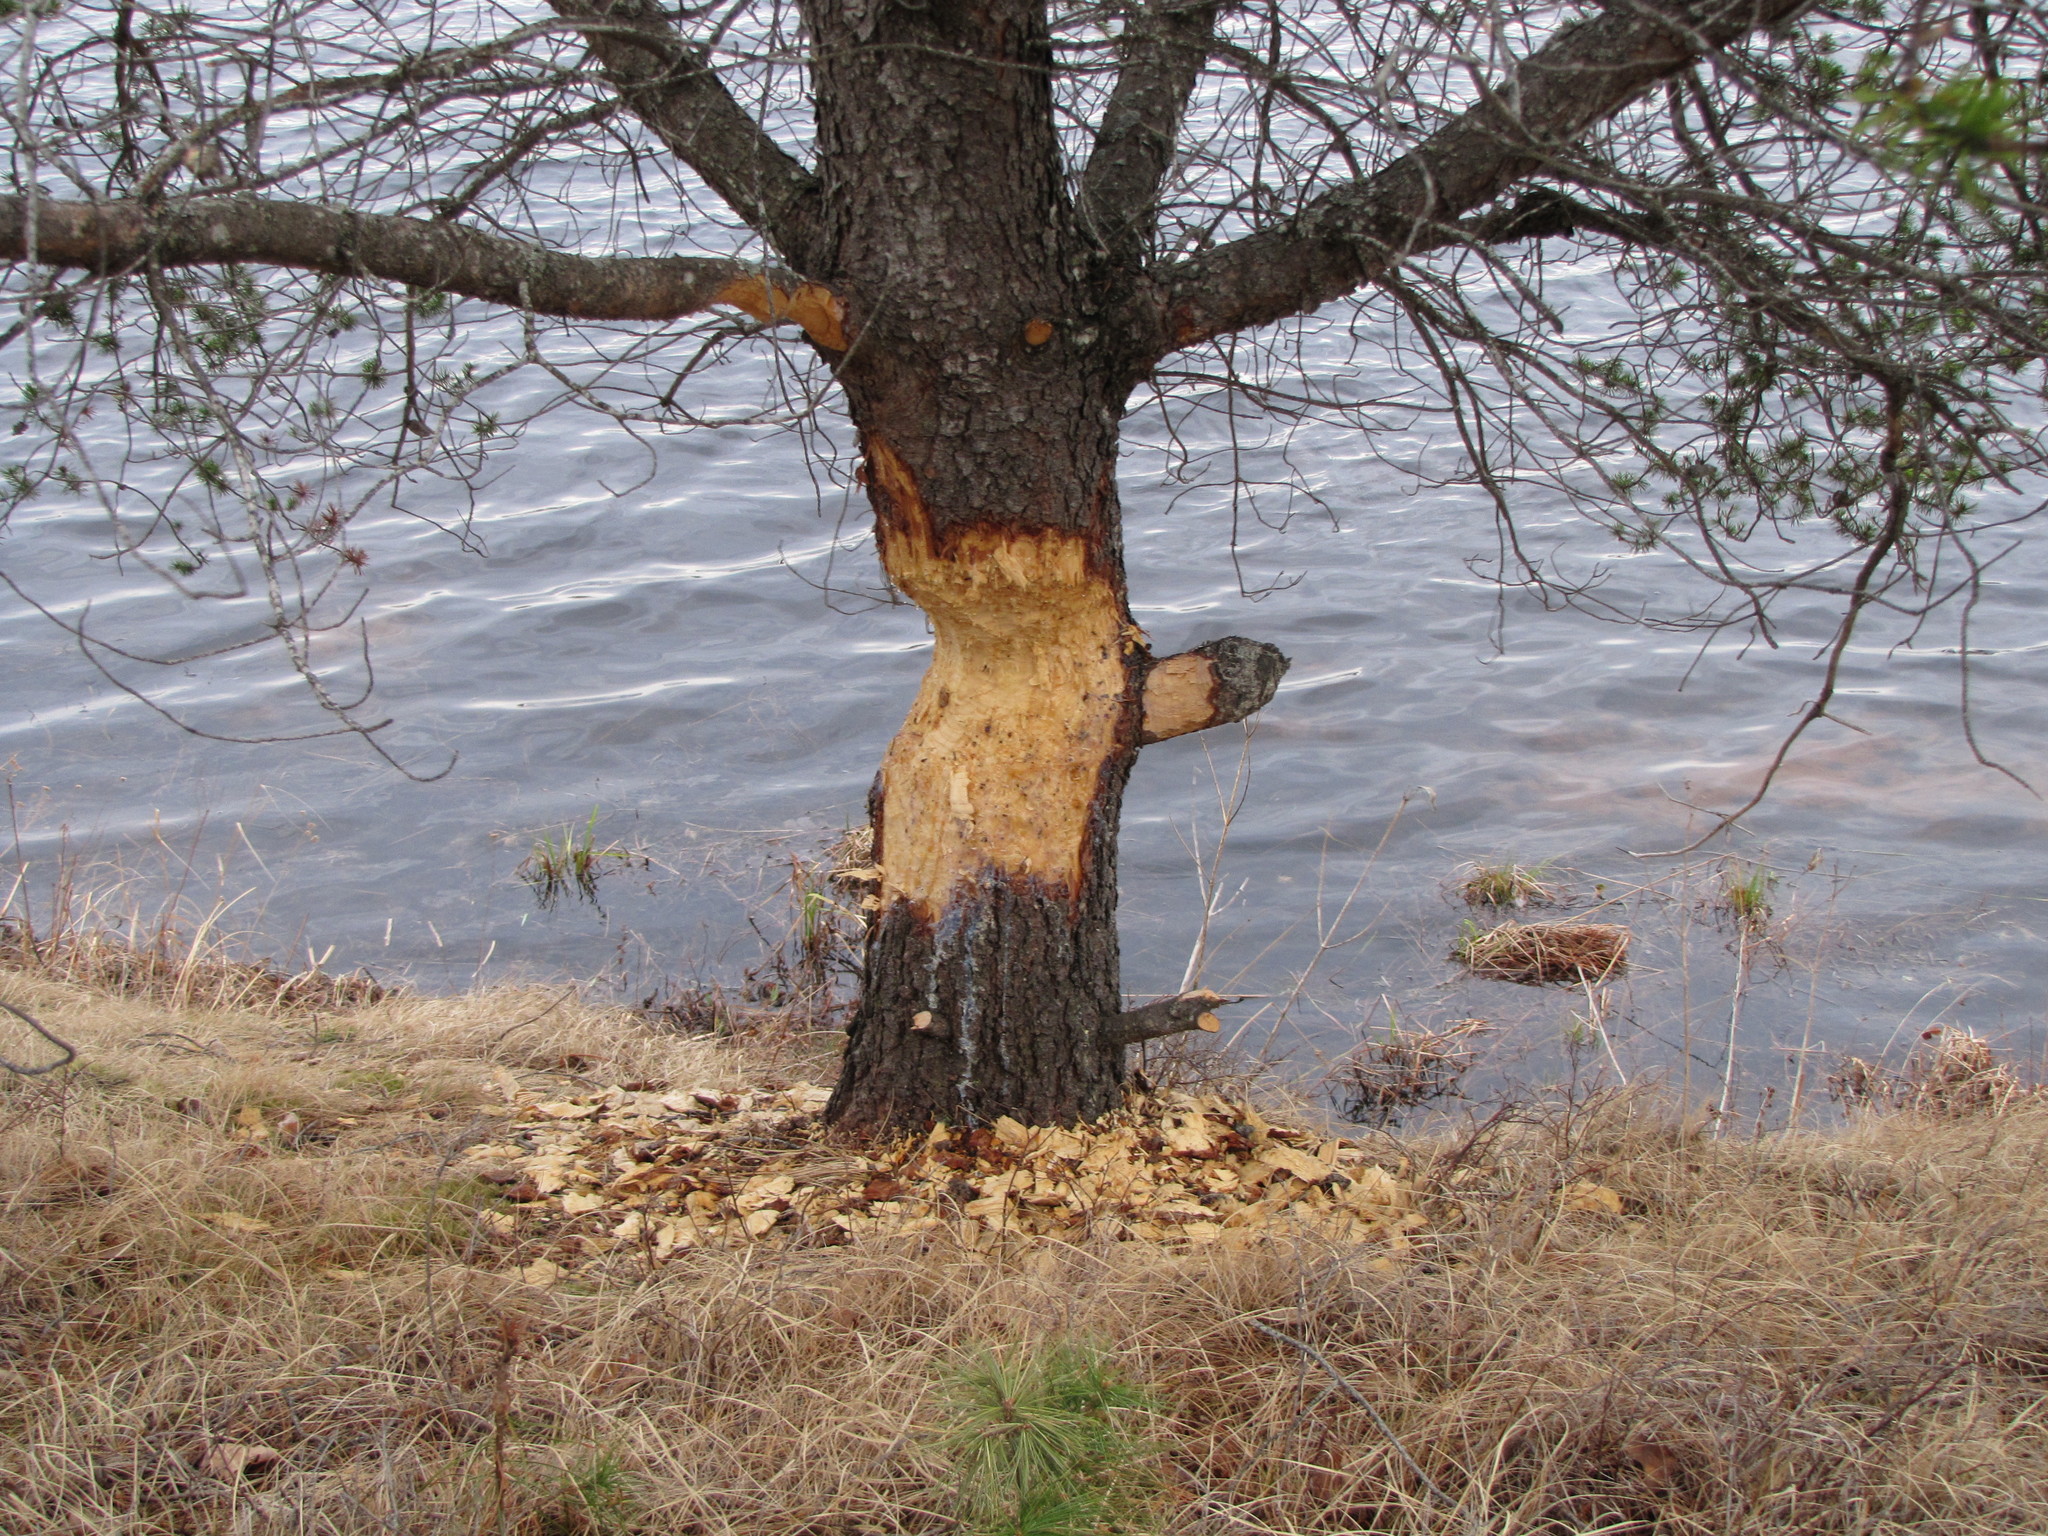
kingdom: Animalia
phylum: Chordata
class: Mammalia
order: Rodentia
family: Castoridae
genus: Castor
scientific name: Castor canadensis
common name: American beaver
